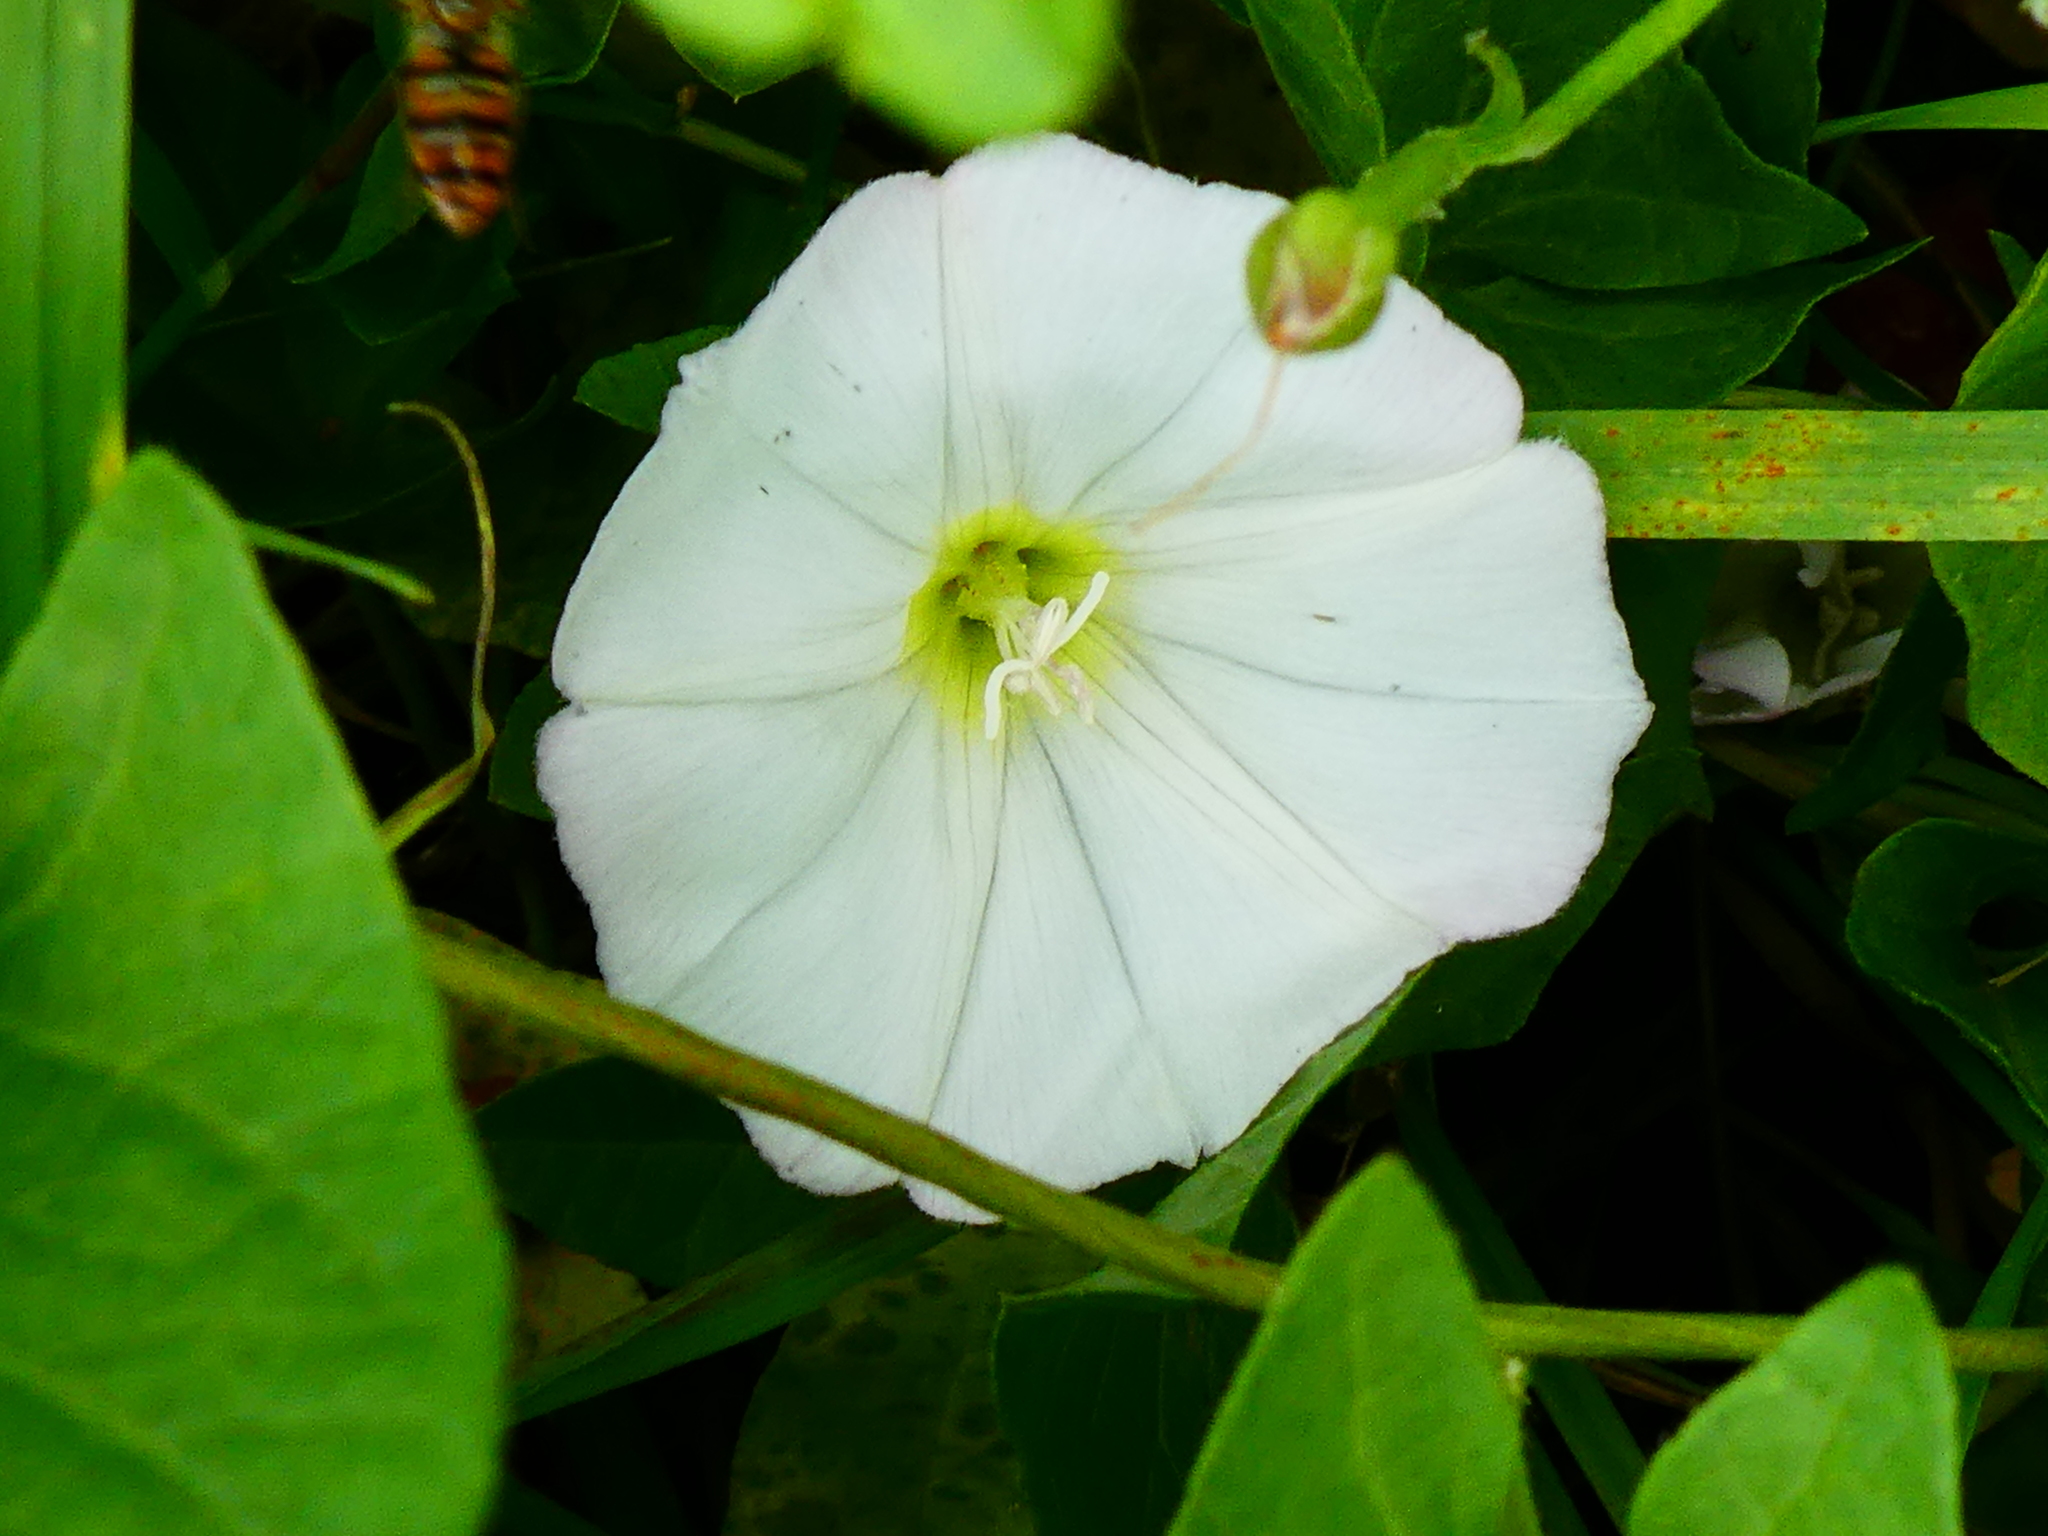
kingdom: Plantae
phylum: Tracheophyta
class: Magnoliopsida
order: Solanales
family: Convolvulaceae
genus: Convolvulus
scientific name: Convolvulus arvensis
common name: Field bindweed
